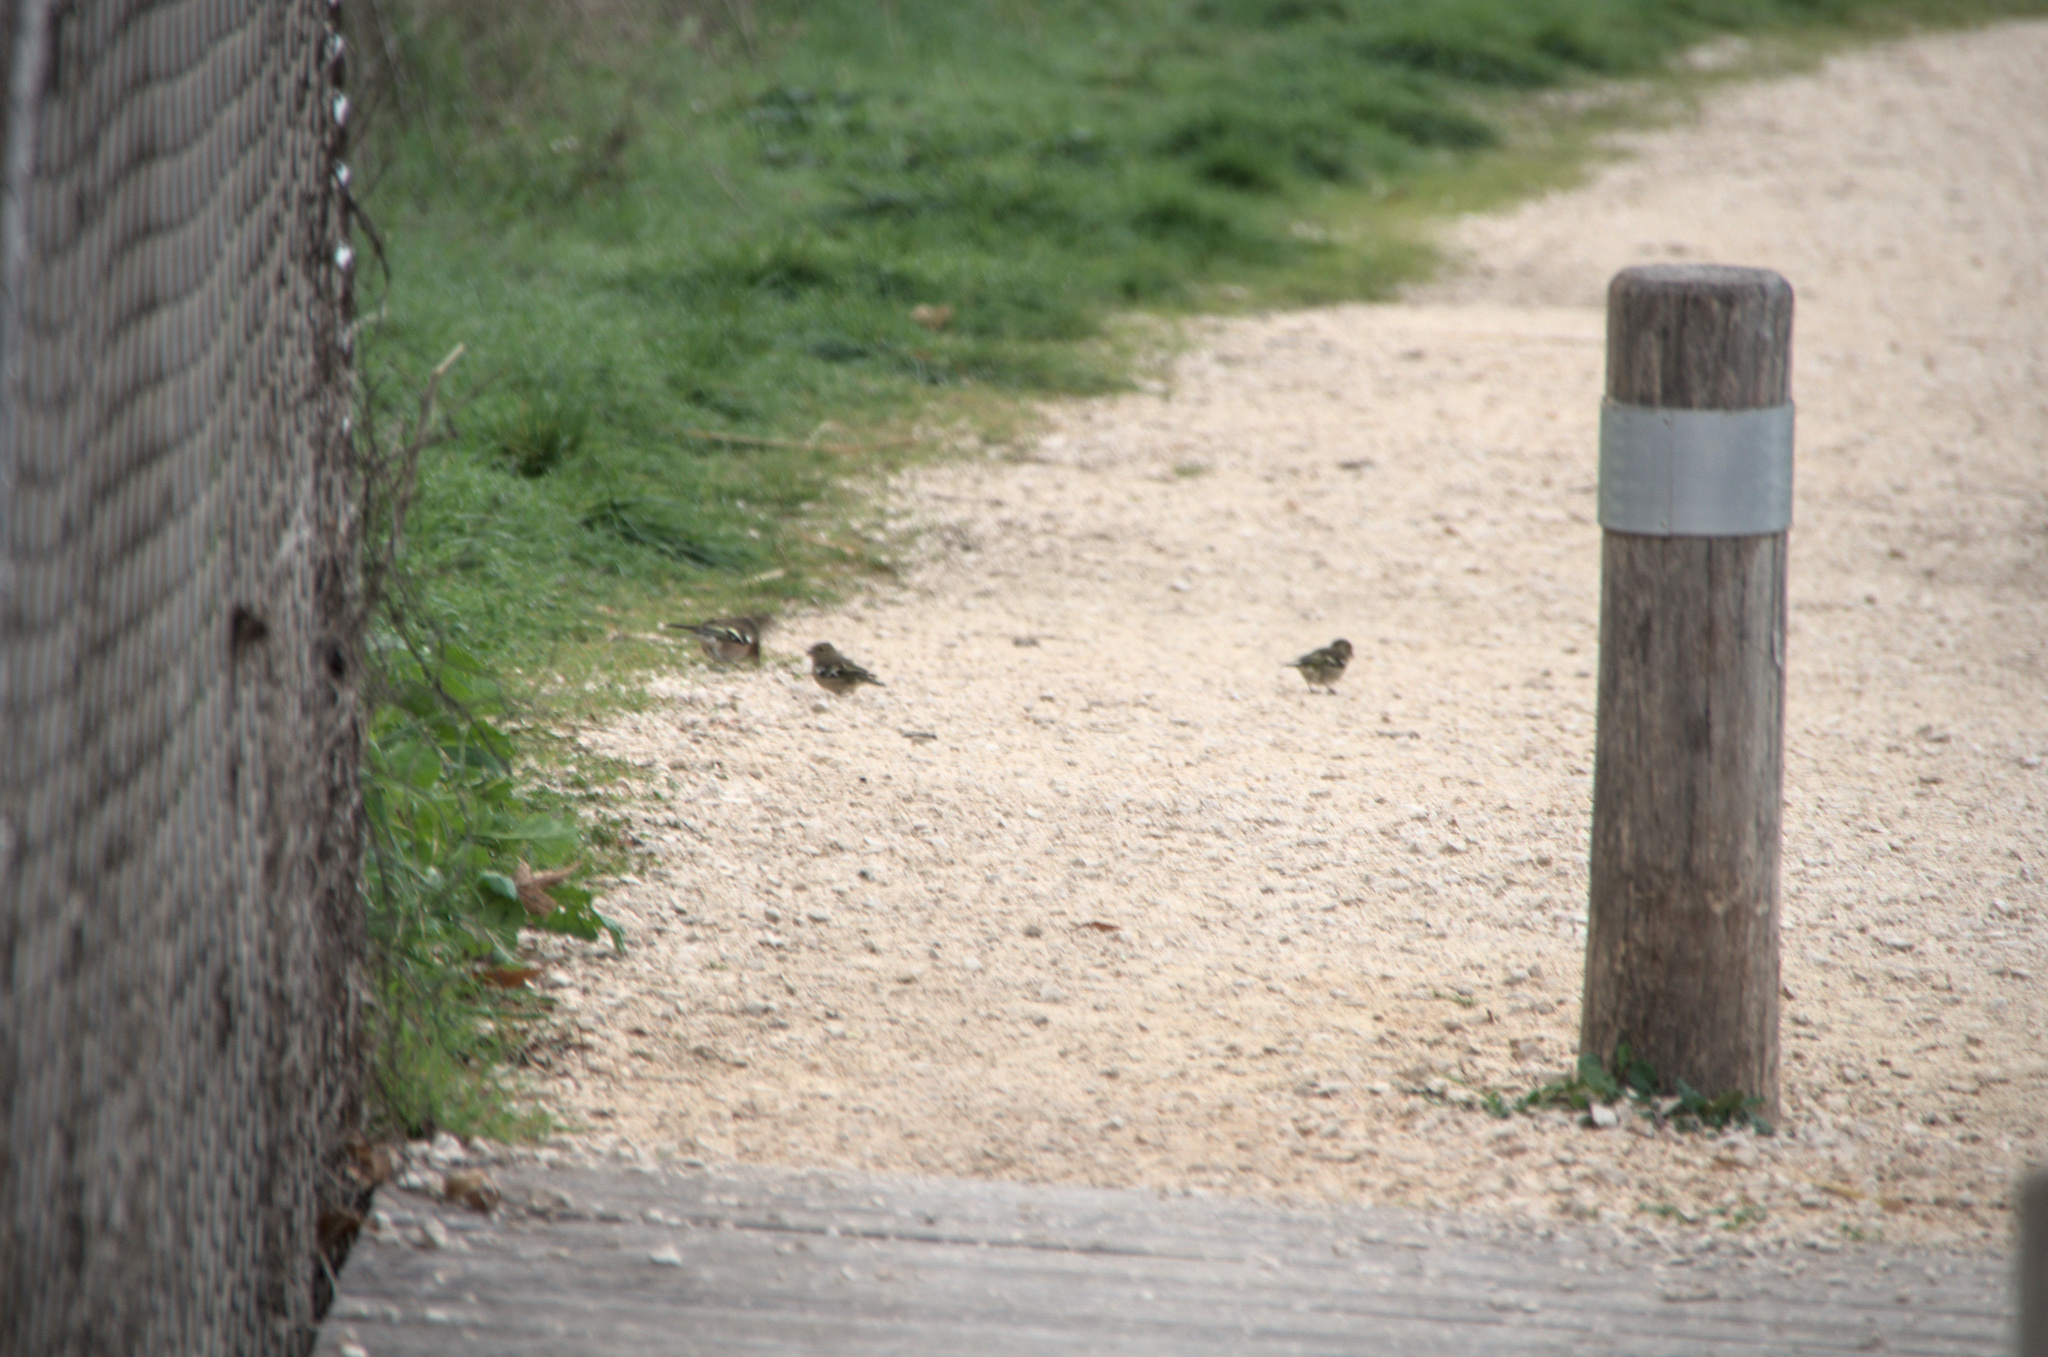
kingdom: Animalia
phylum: Chordata
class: Aves
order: Passeriformes
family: Fringillidae
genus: Fringilla
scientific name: Fringilla coelebs
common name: Common chaffinch
